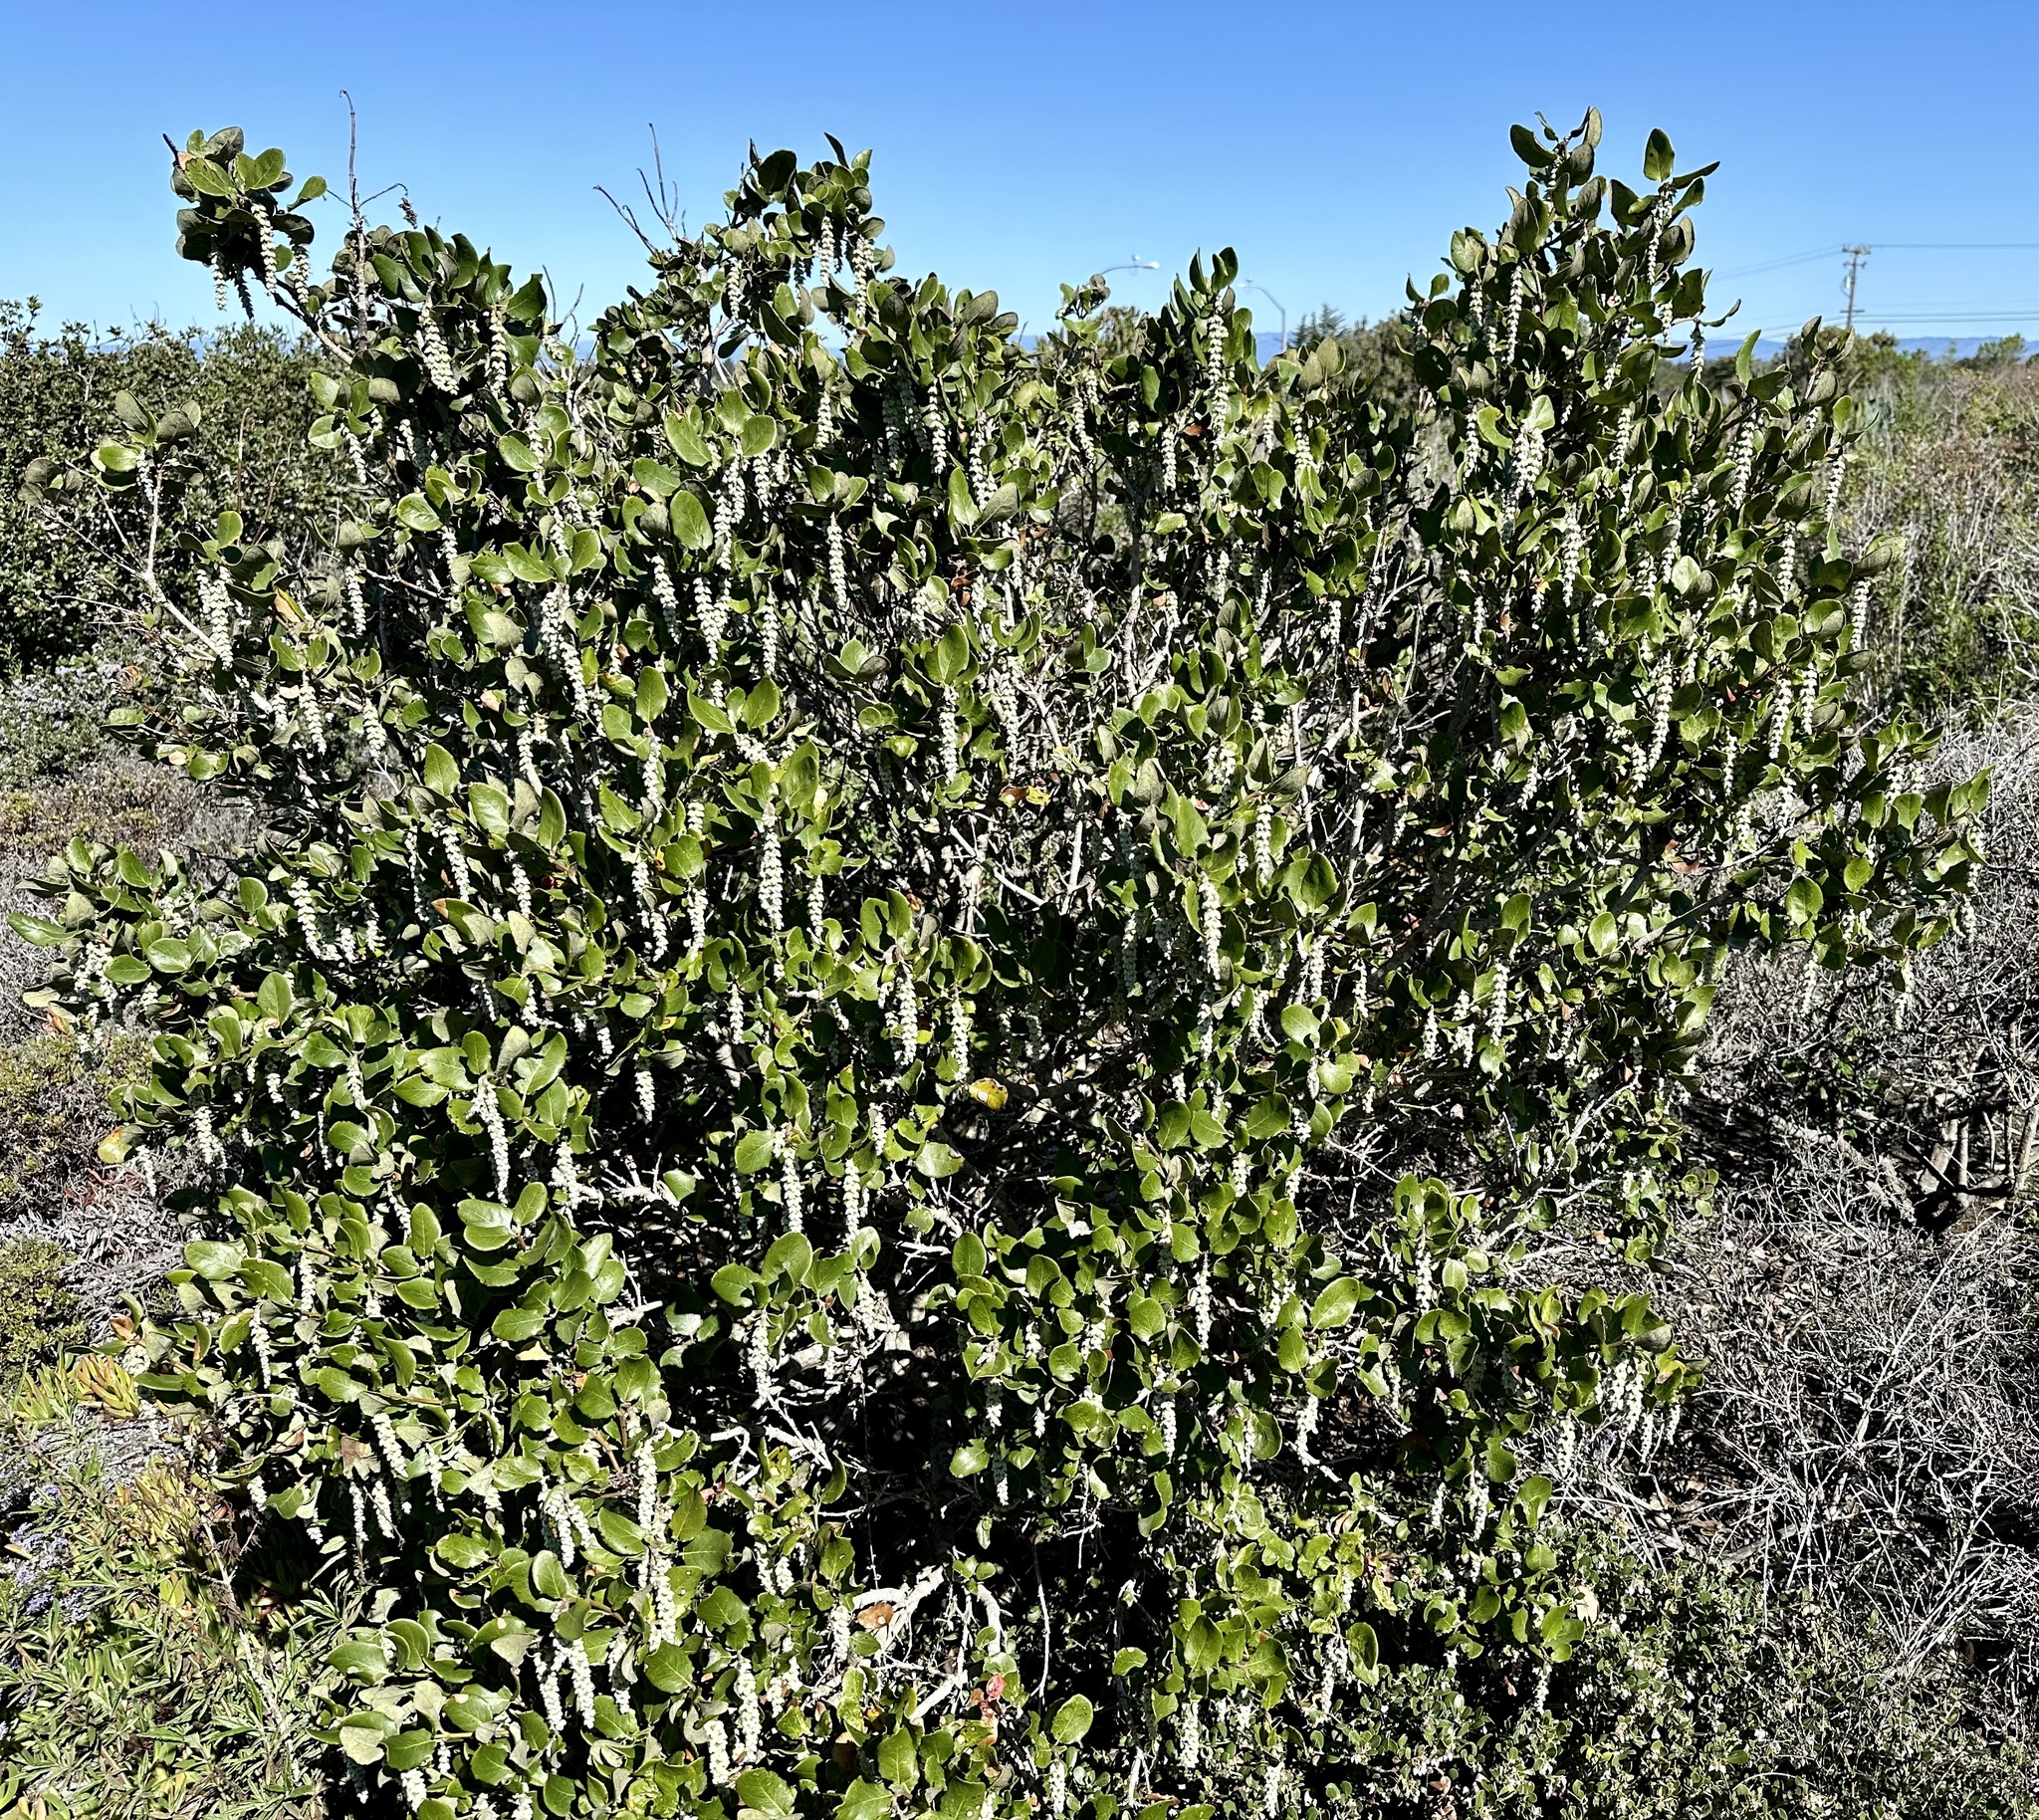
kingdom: Plantae
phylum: Tracheophyta
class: Magnoliopsida
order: Garryales
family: Garryaceae
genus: Garrya
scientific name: Garrya elliptica
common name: Silk-tassel
